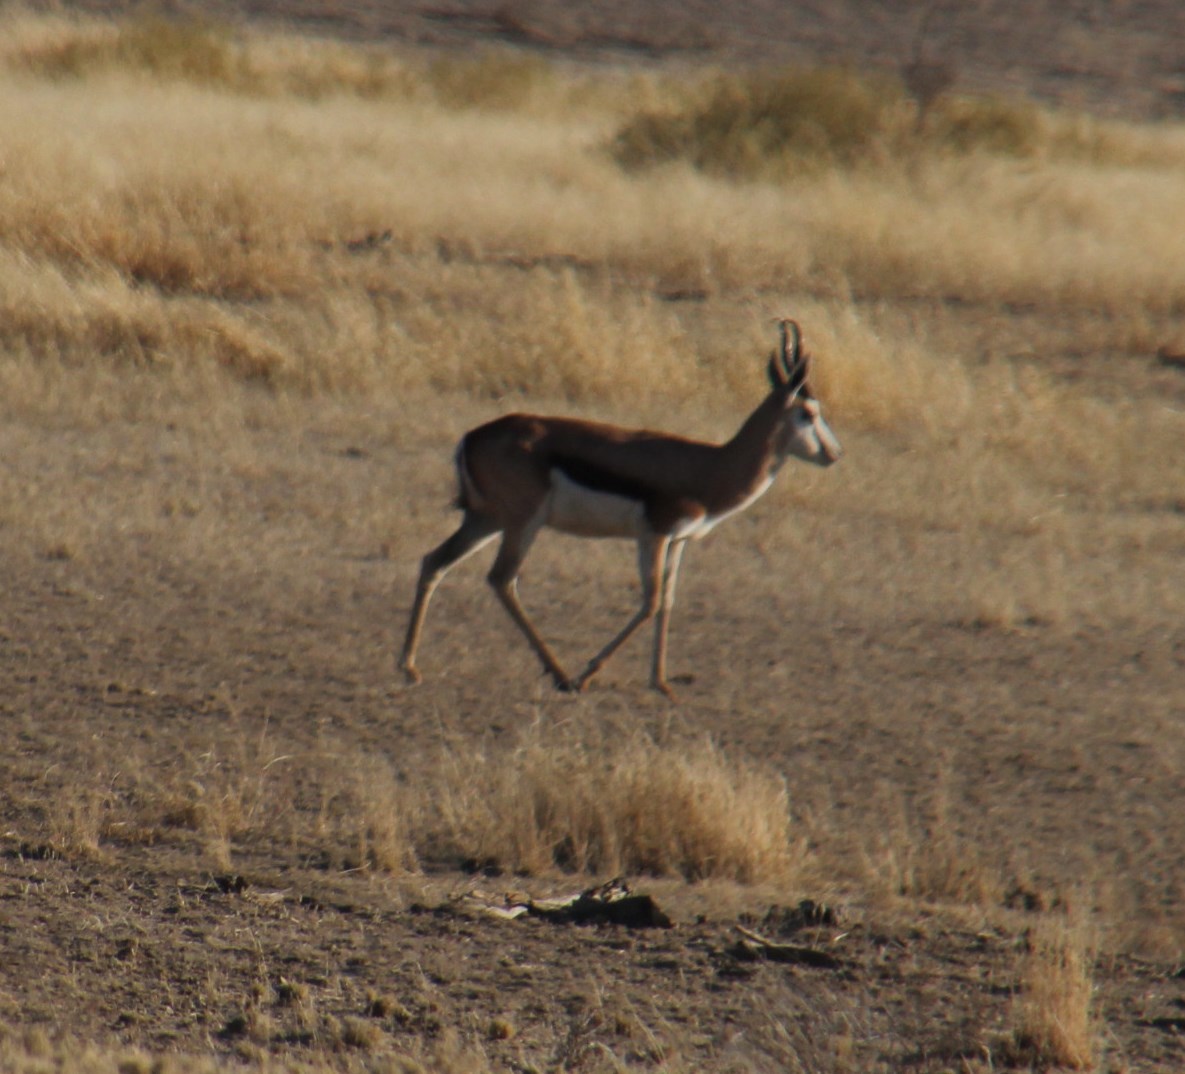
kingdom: Animalia
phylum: Chordata
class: Mammalia
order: Artiodactyla
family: Bovidae
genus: Antidorcas
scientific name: Antidorcas marsupialis
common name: Springbok
